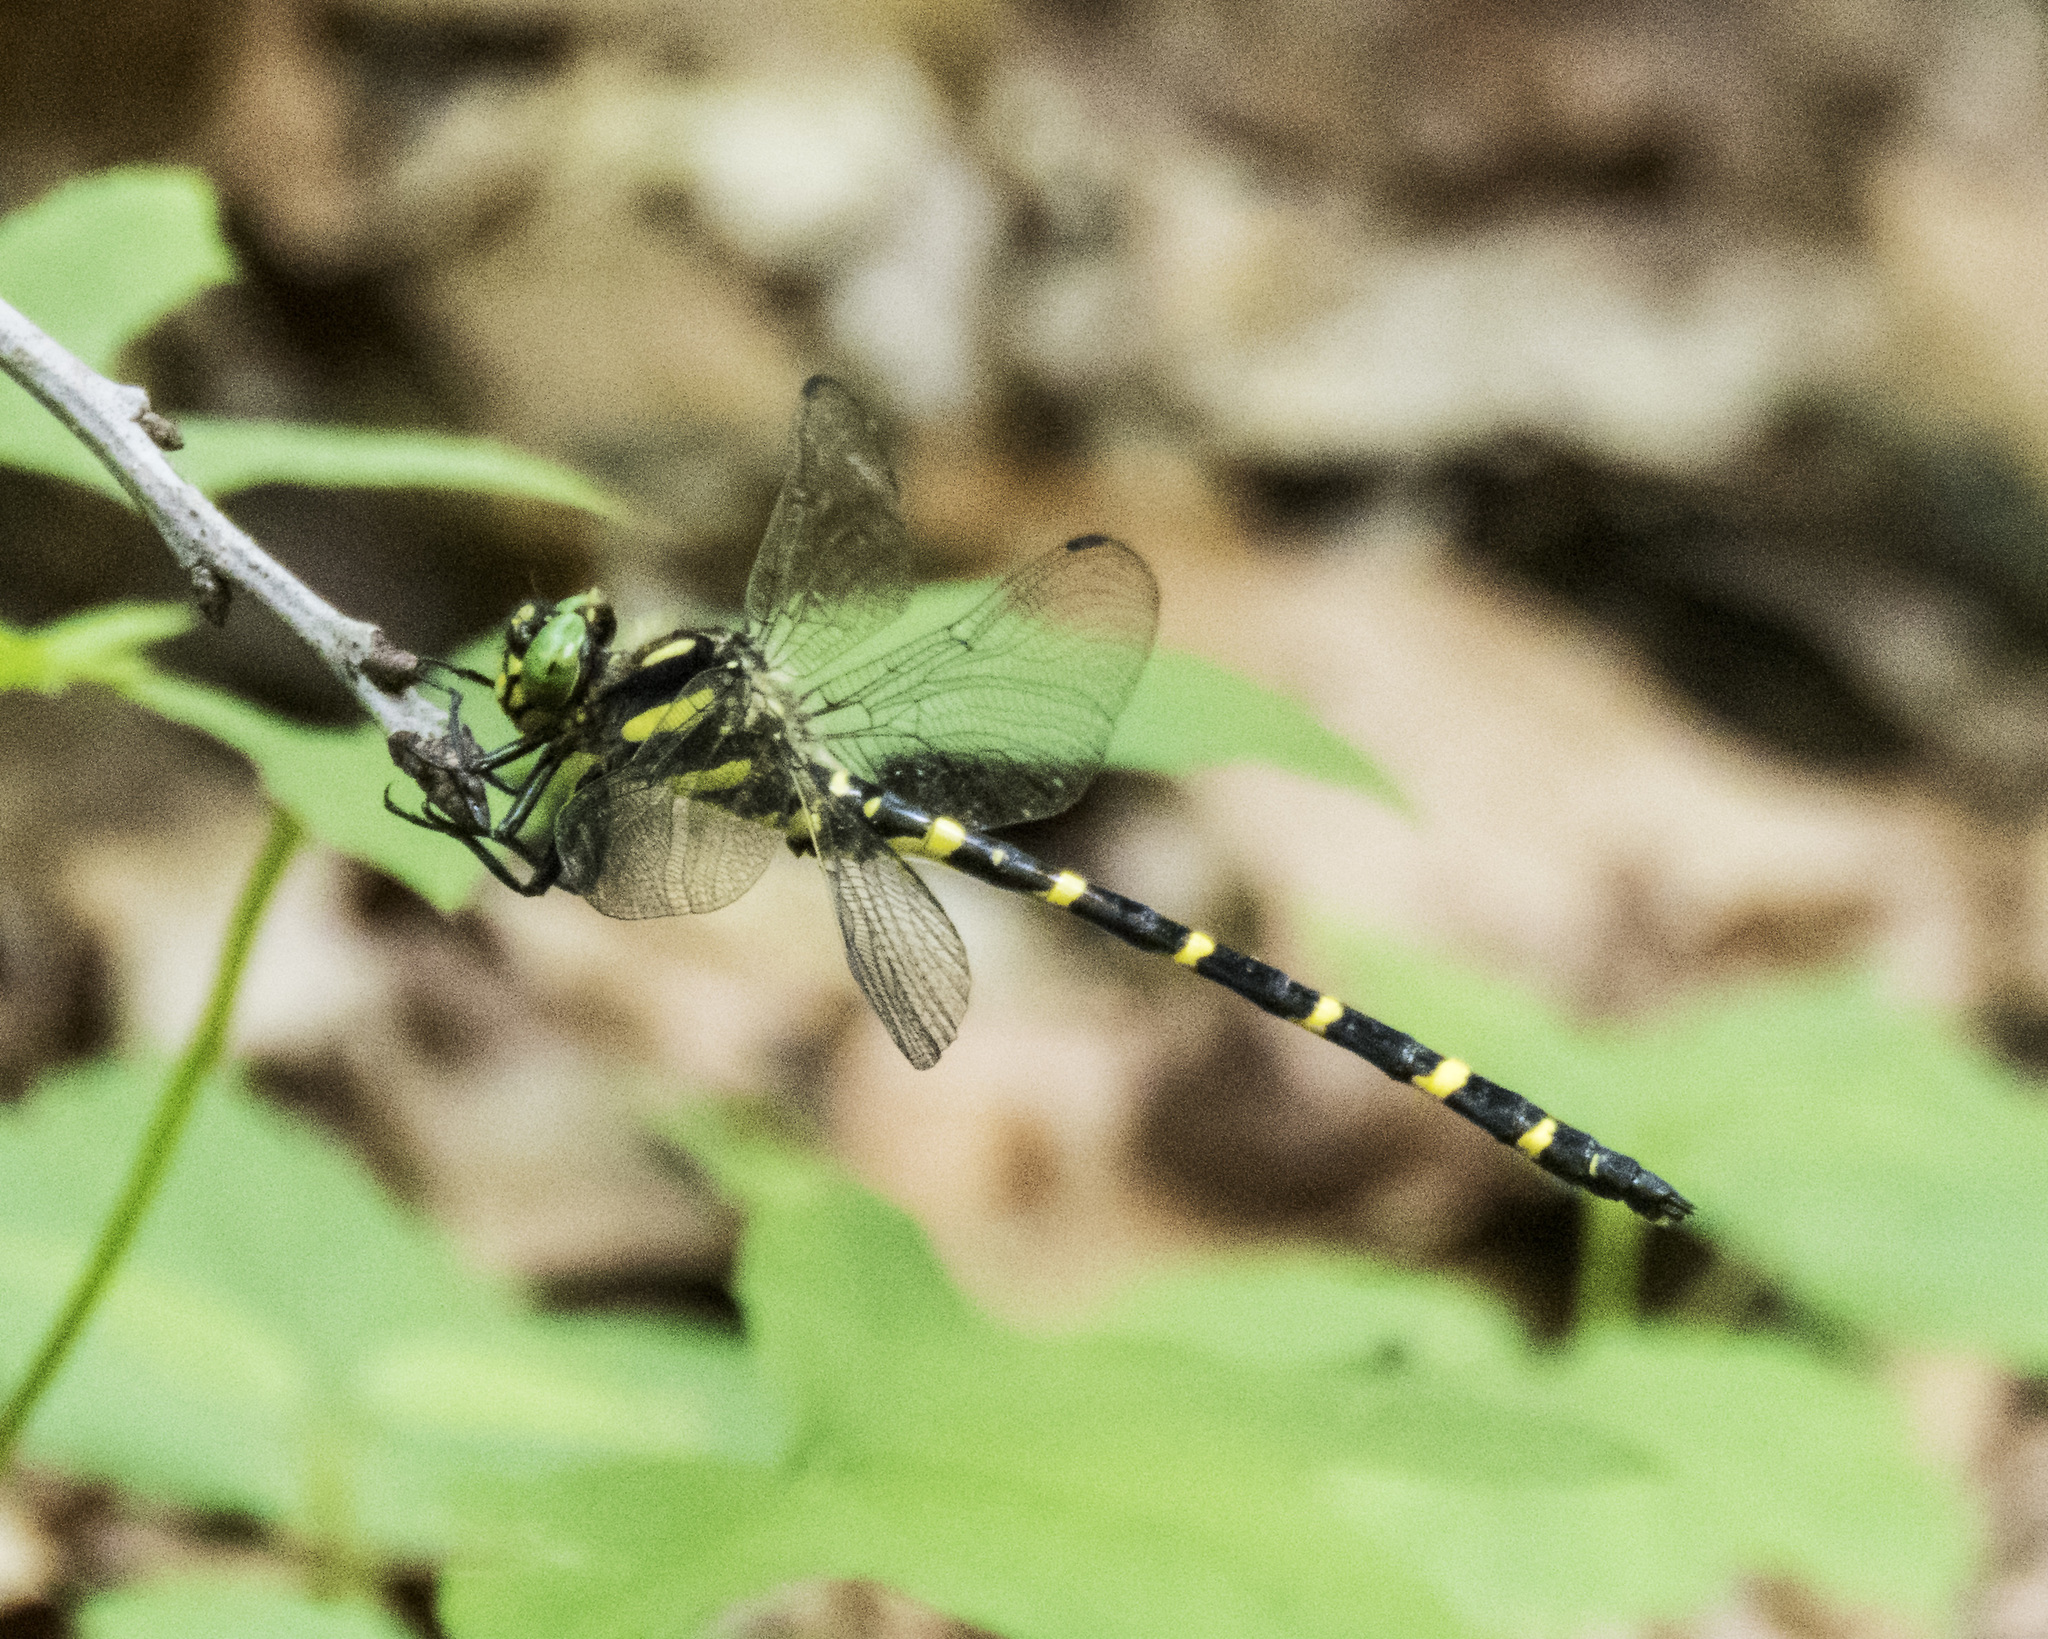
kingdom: Animalia
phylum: Arthropoda
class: Insecta
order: Odonata
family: Cordulegastridae
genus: Cordulegaster
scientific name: Cordulegaster erronea
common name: Tiger spiketail
